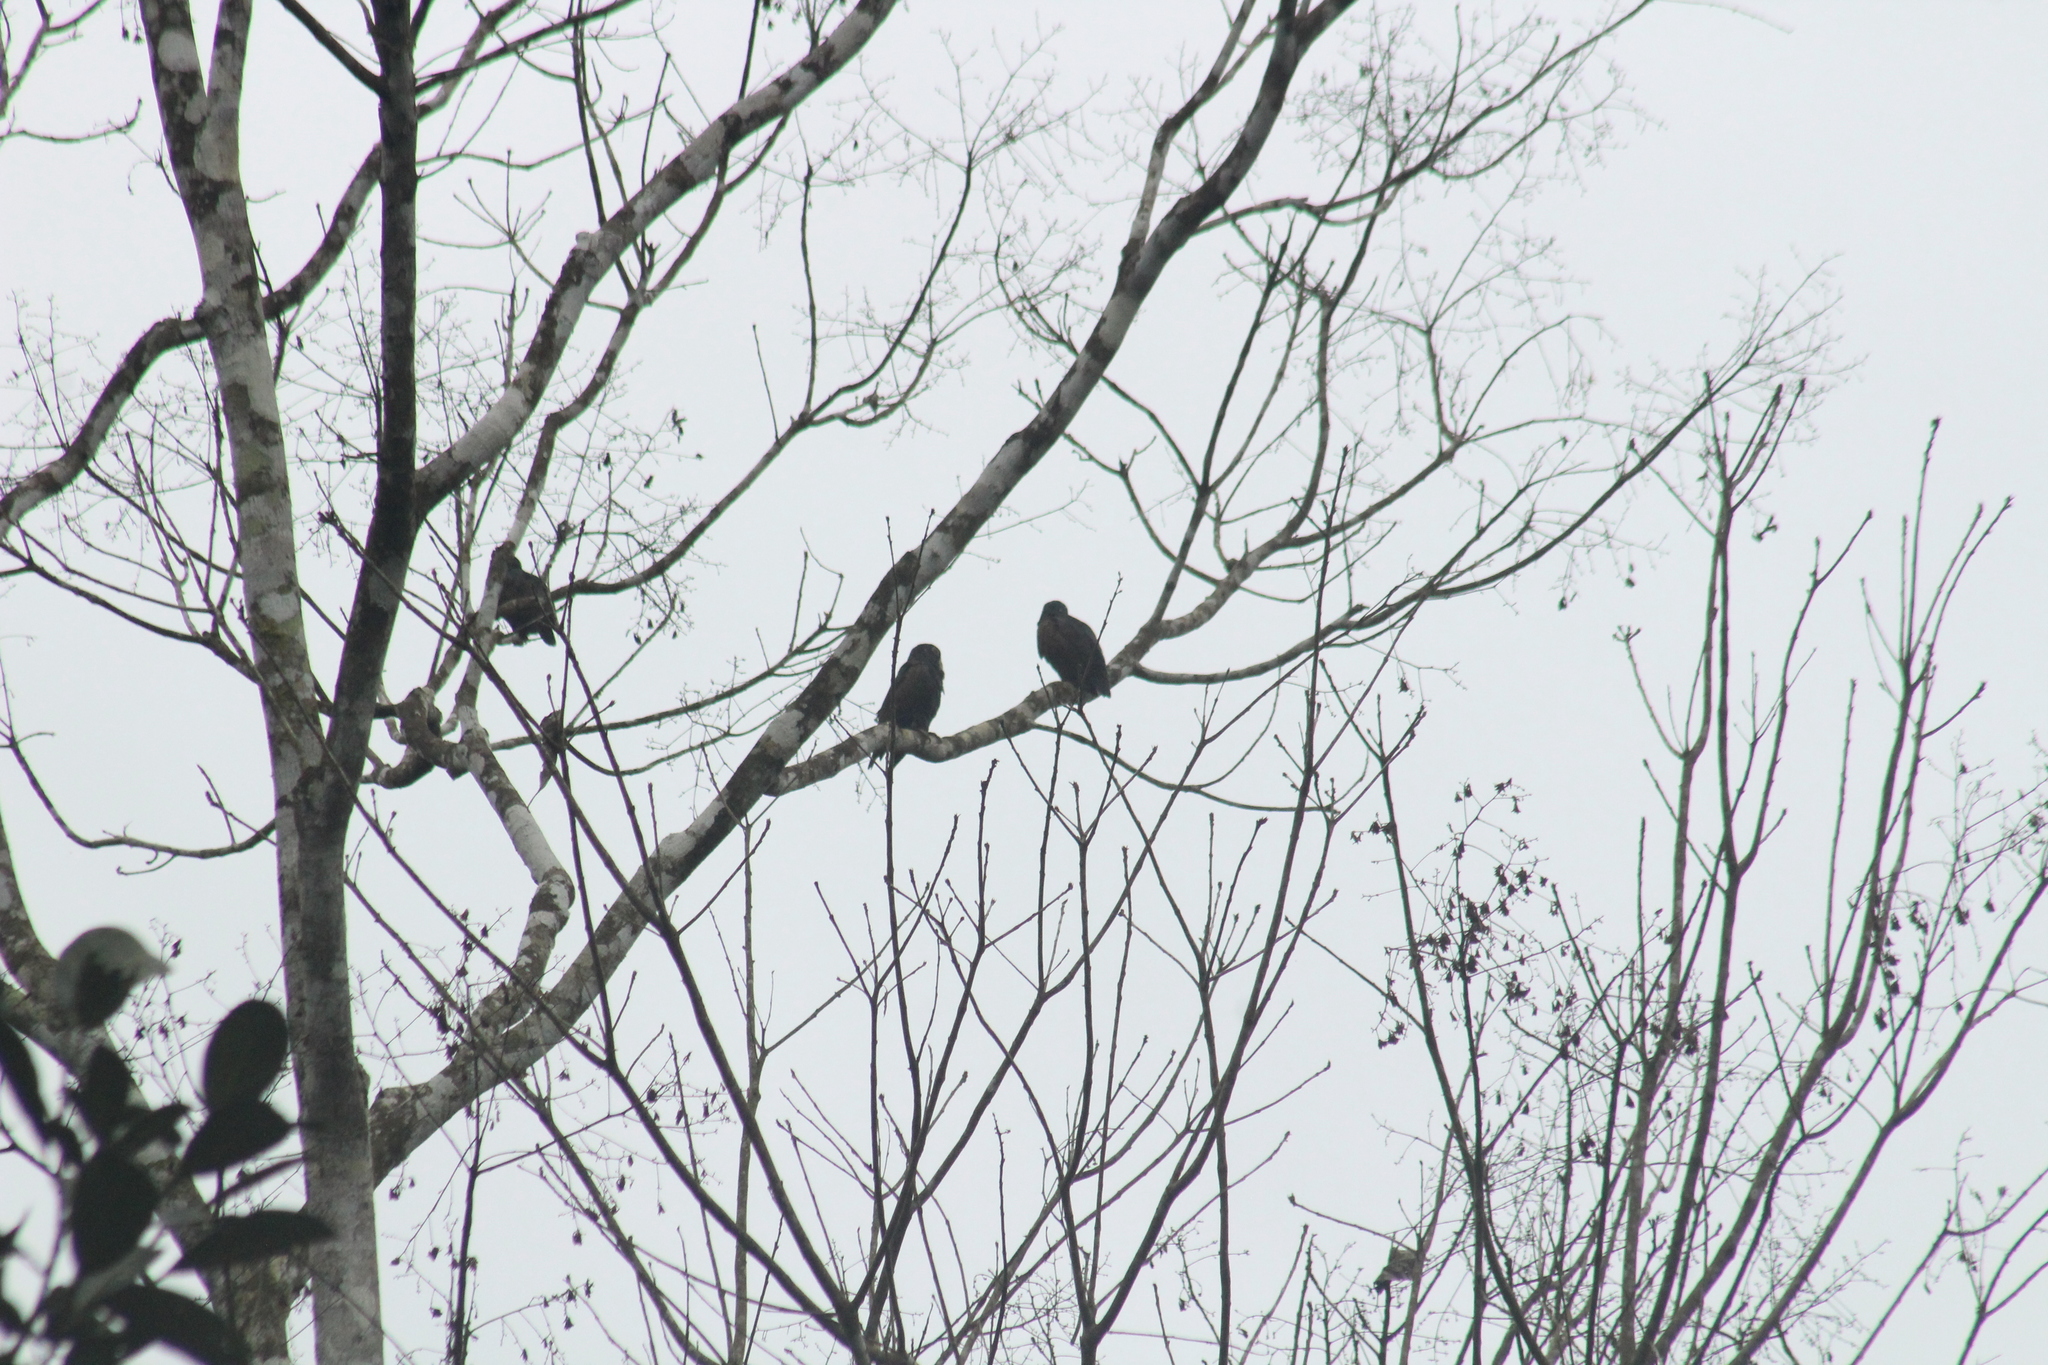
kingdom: Animalia
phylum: Chordata
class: Aves
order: Psittaciformes
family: Psittacidae
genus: Pionus
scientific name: Pionus chalcopterus
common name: Bronze-winged parrot
